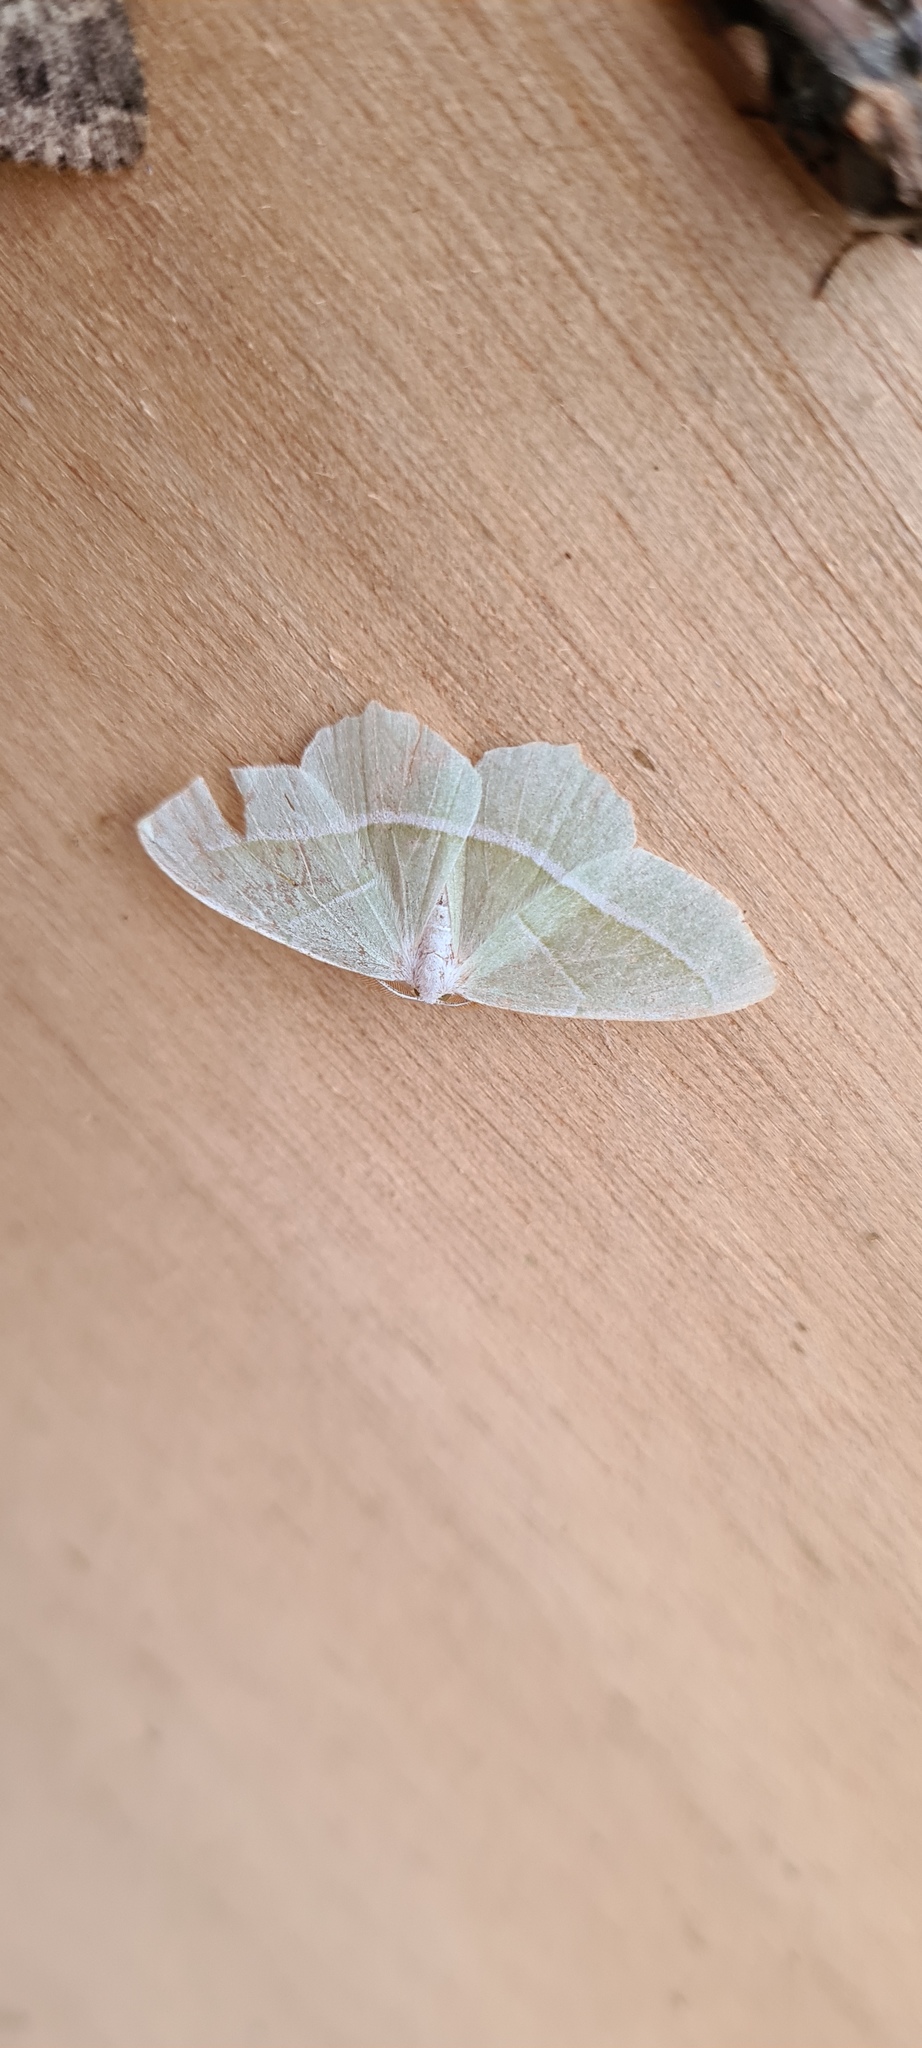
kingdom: Animalia
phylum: Arthropoda
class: Insecta
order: Lepidoptera
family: Geometridae
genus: Campaea
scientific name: Campaea margaritaria
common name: Light emerald
